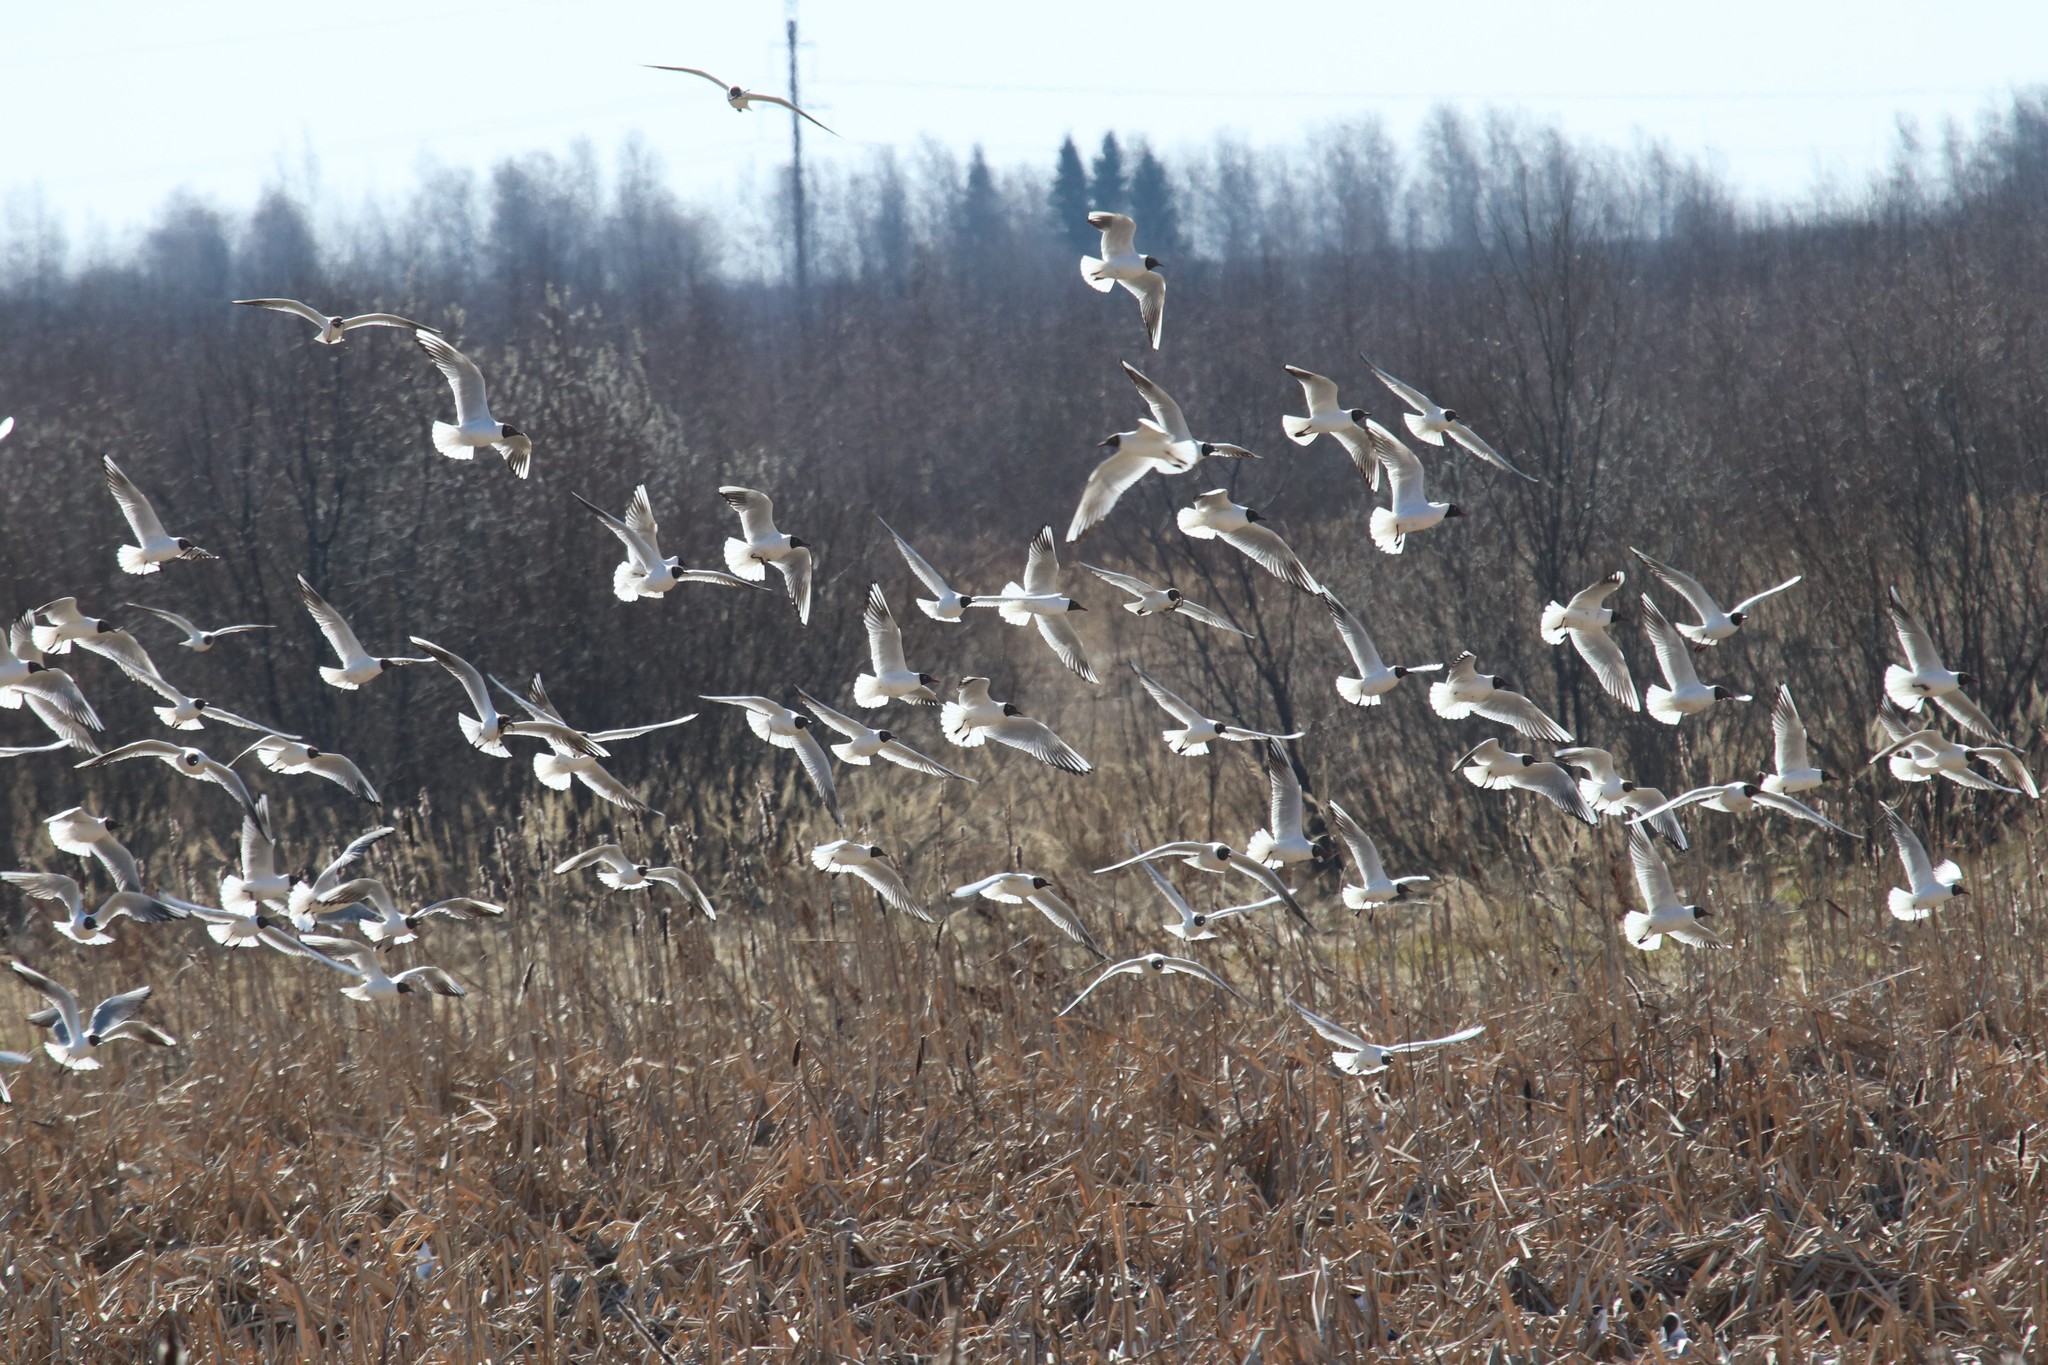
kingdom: Animalia
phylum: Chordata
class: Aves
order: Charadriiformes
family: Laridae
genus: Chroicocephalus
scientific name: Chroicocephalus ridibundus
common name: Black-headed gull
